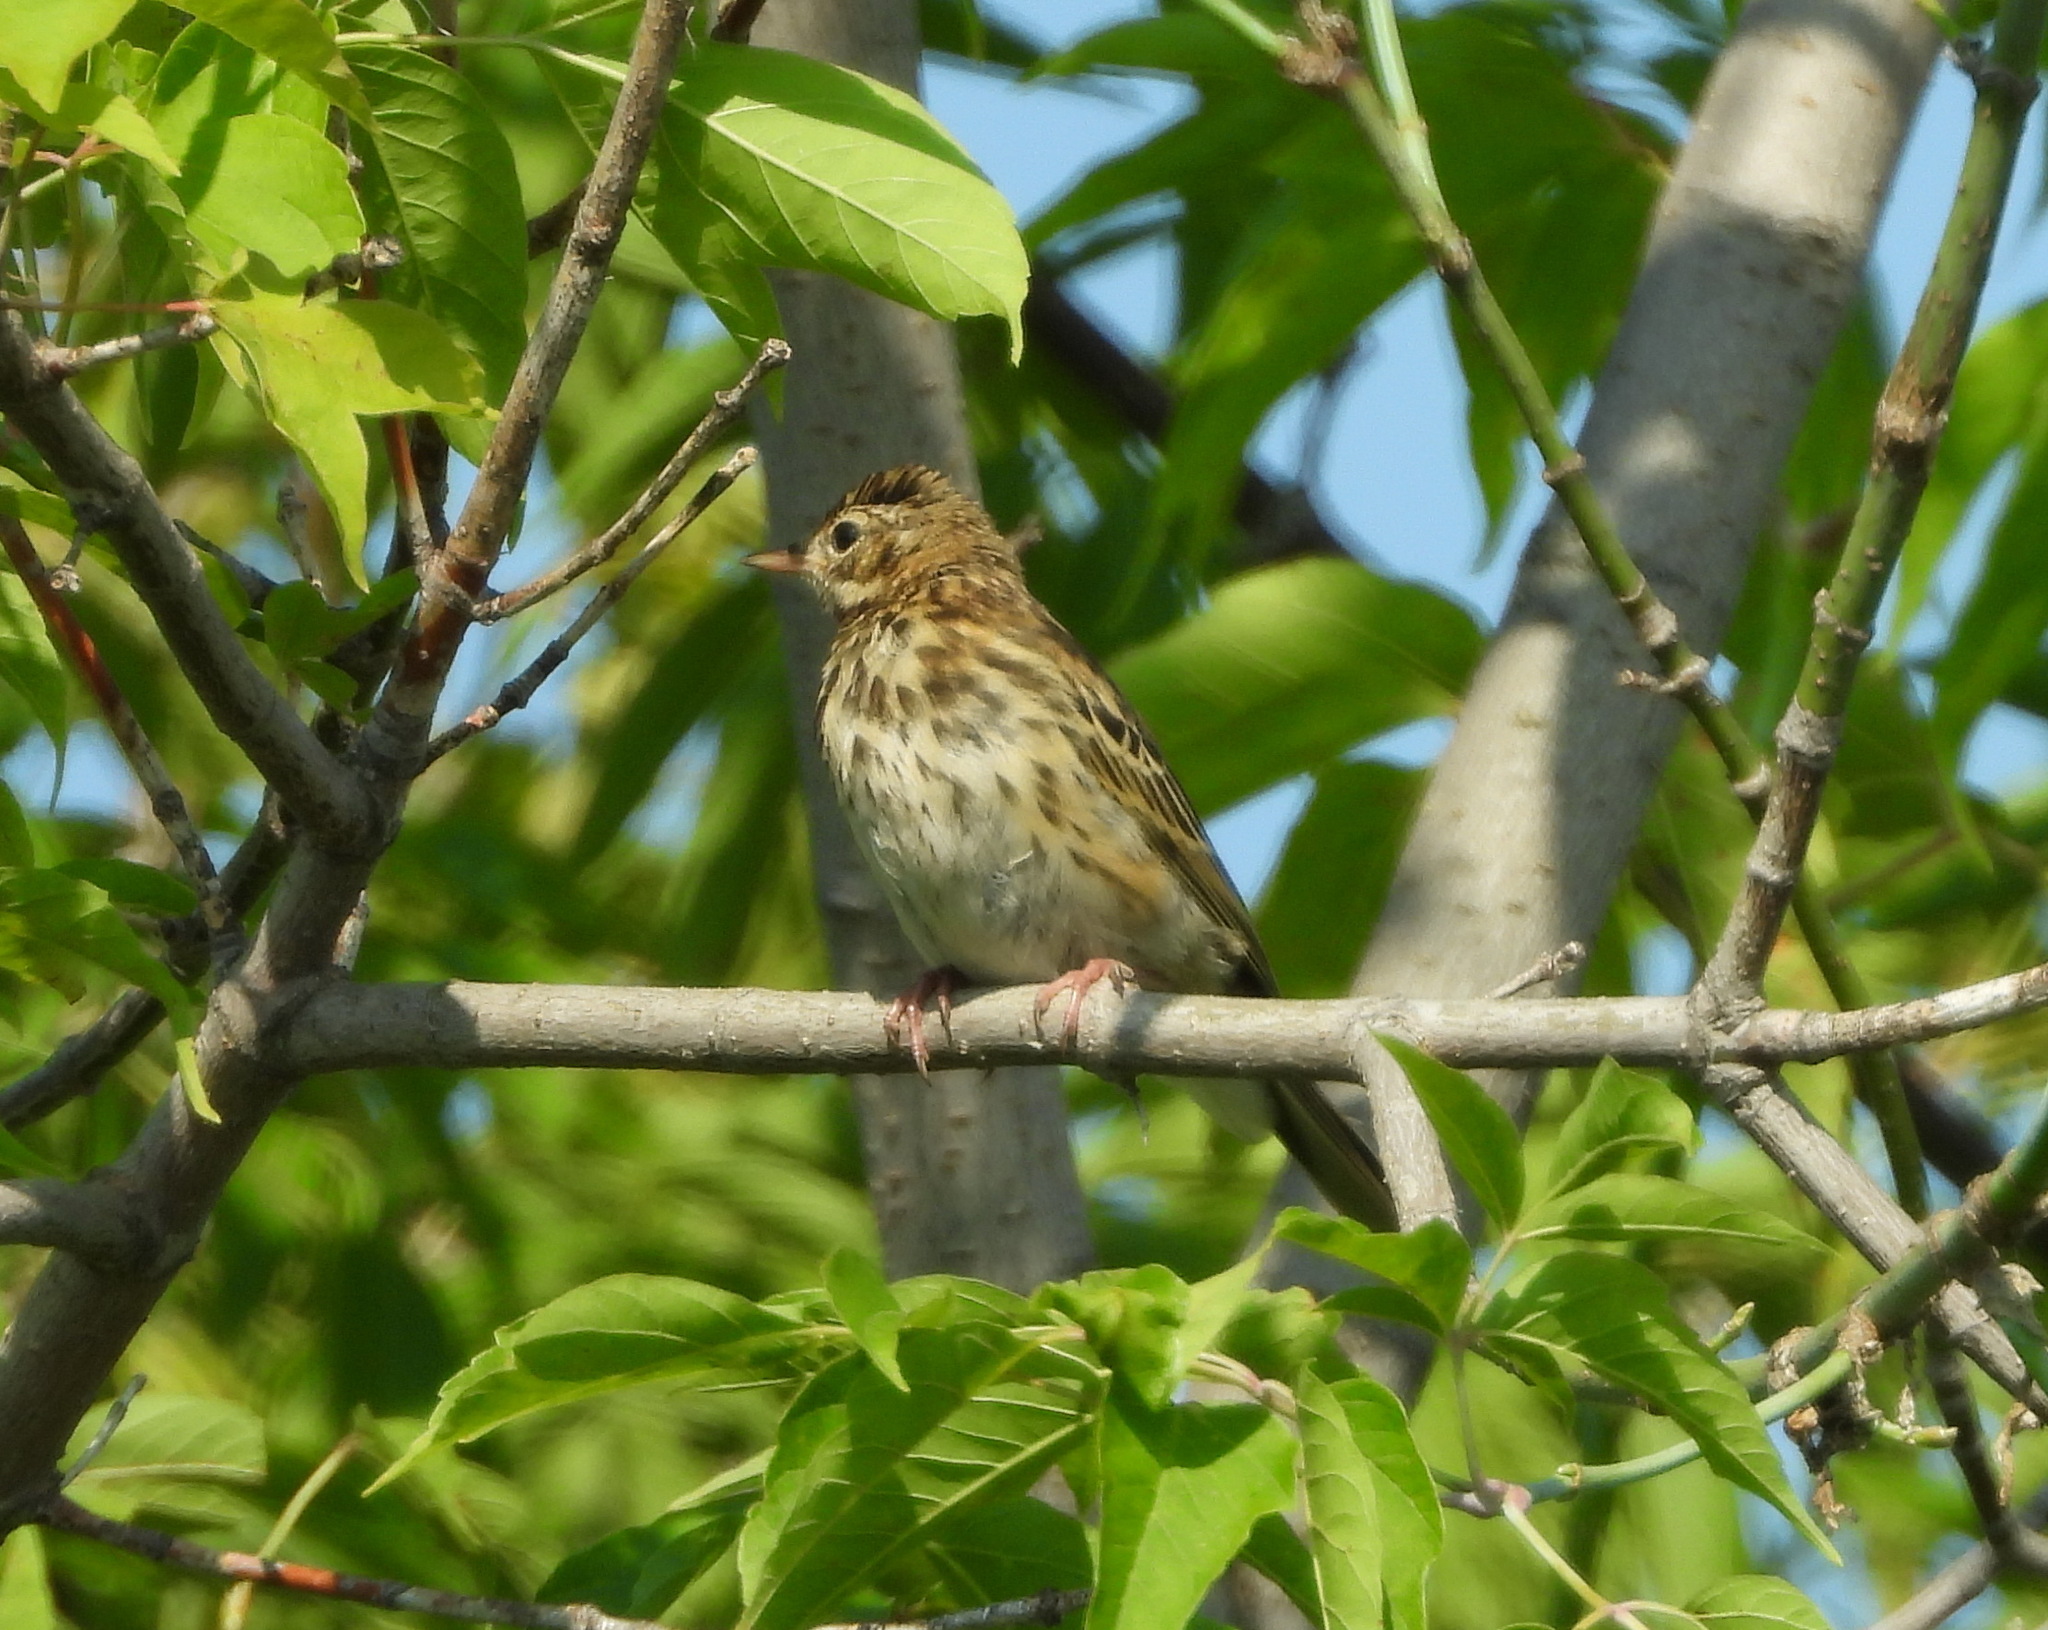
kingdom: Animalia
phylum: Chordata
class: Aves
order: Passeriformes
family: Motacillidae
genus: Anthus
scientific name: Anthus trivialis
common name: Tree pipit
